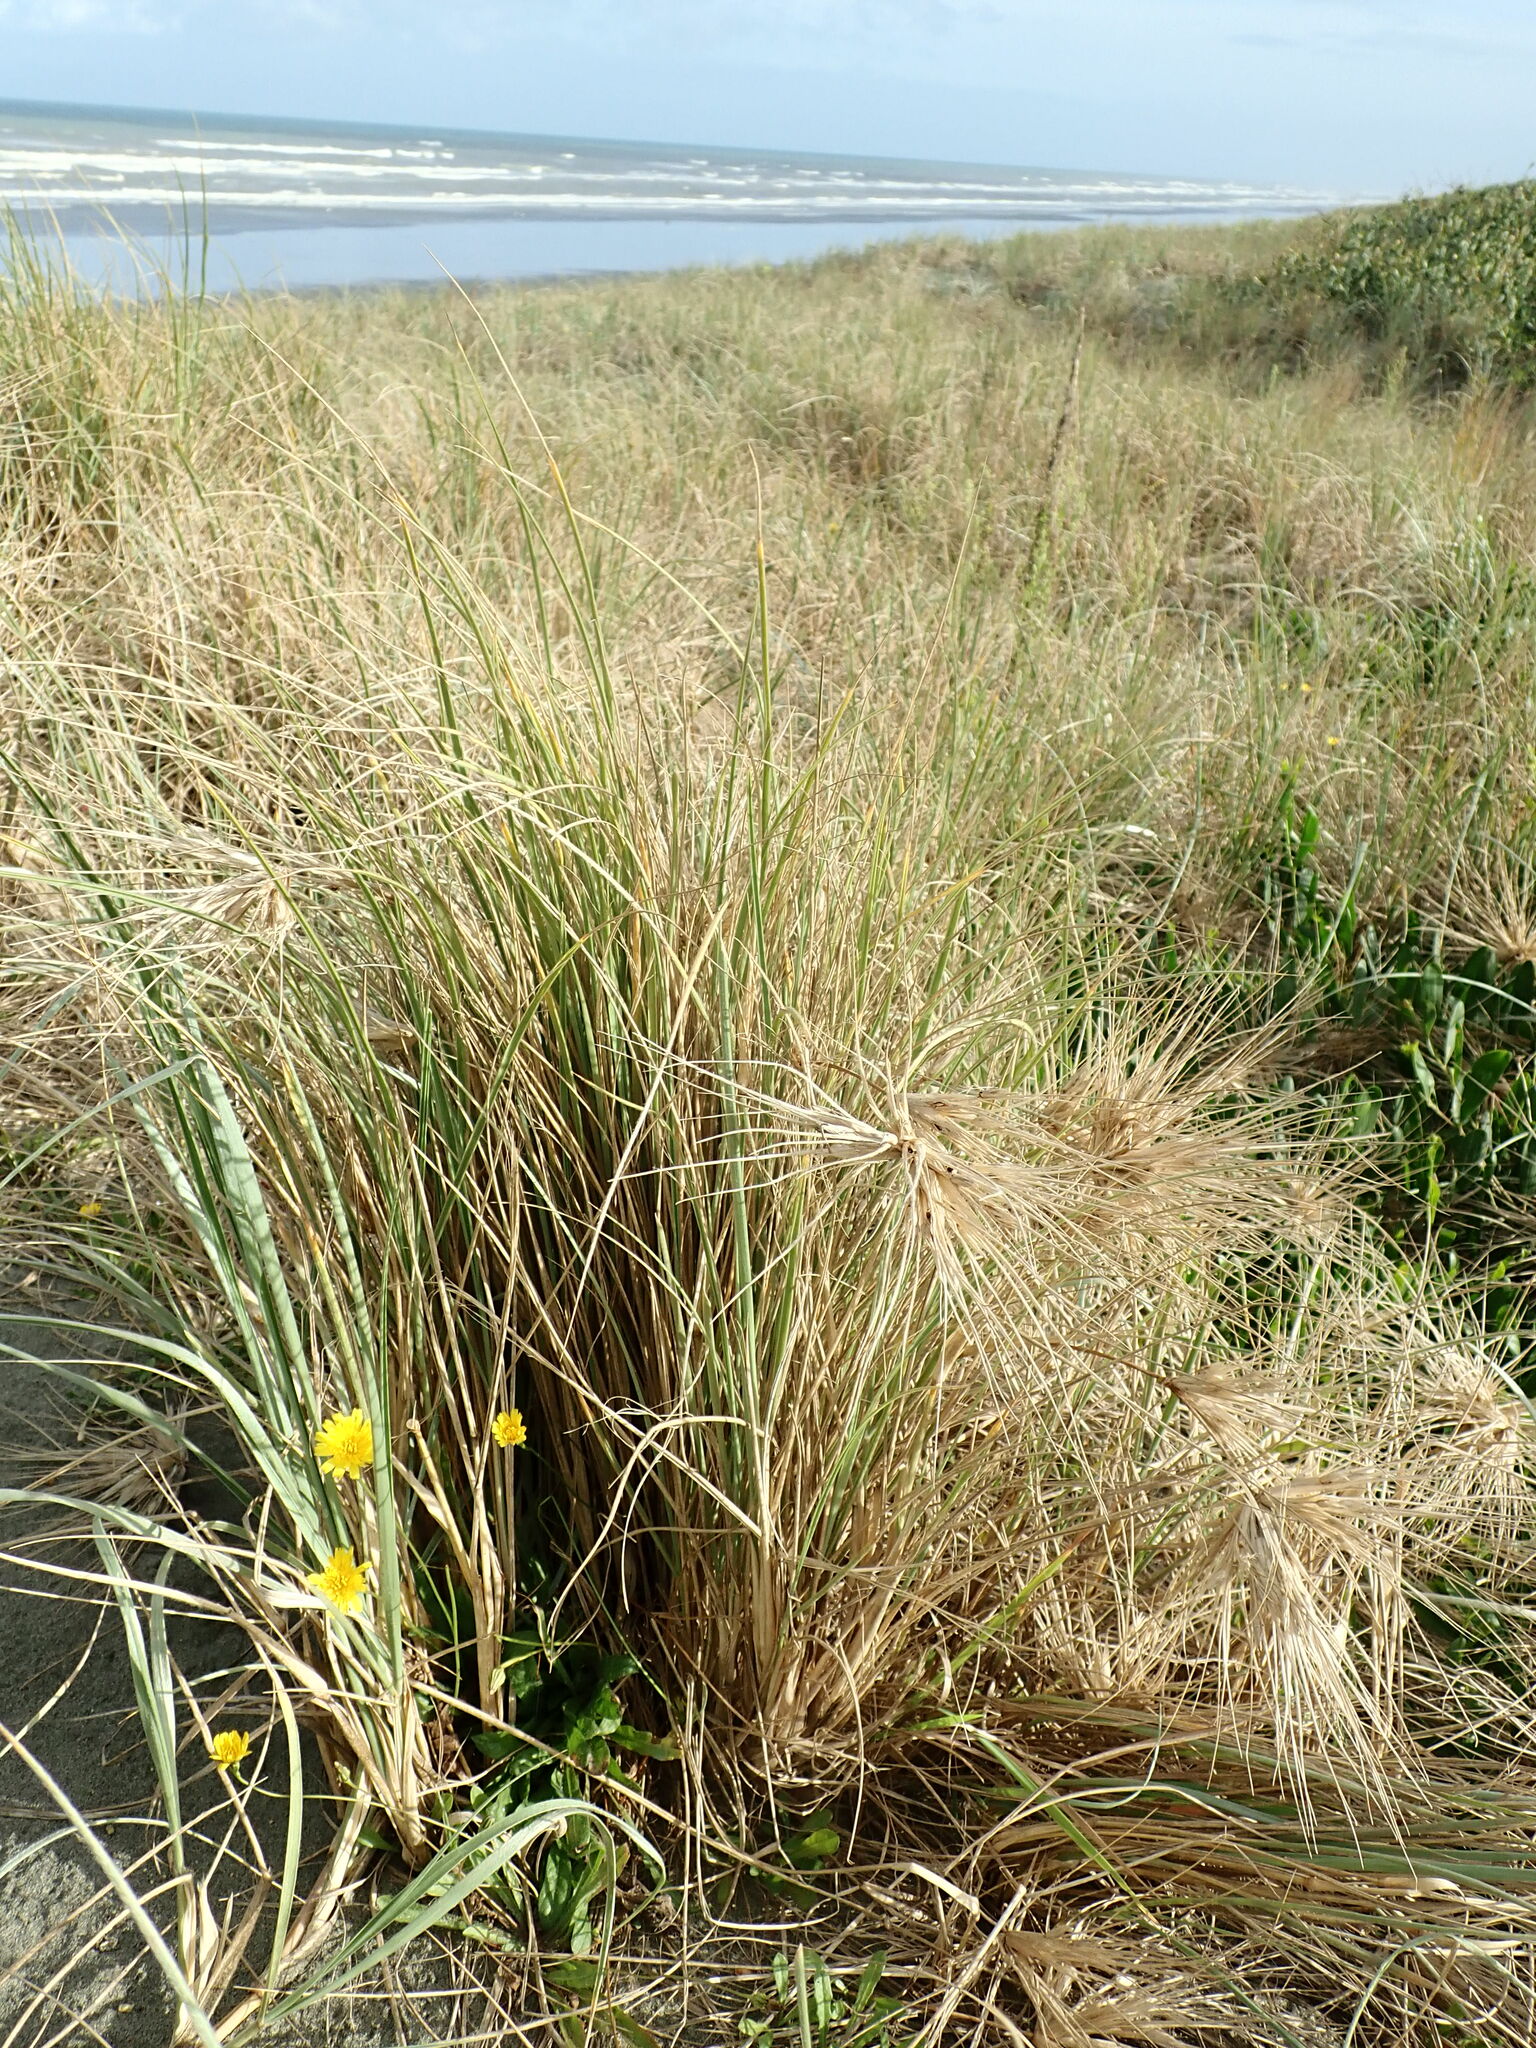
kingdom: Animalia
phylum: Arthropoda
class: Insecta
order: Hymenoptera
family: Sphecidae
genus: Podalonia
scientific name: Podalonia tydei
